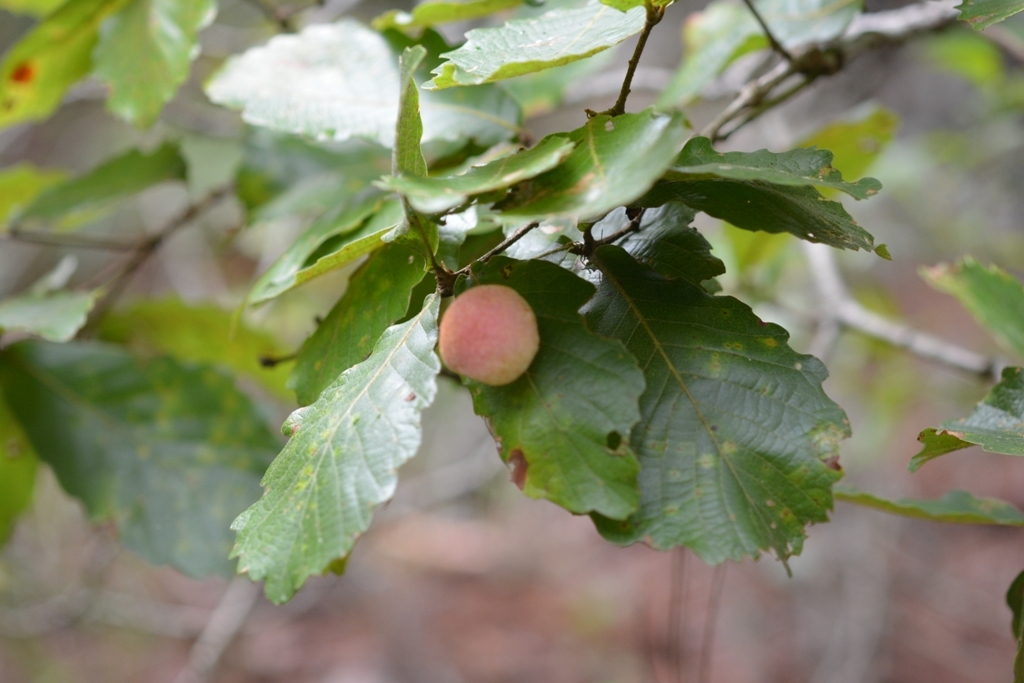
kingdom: Plantae
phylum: Tracheophyta
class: Magnoliopsida
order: Fagales
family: Fagaceae
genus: Quercus
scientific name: Quercus segoviensis
